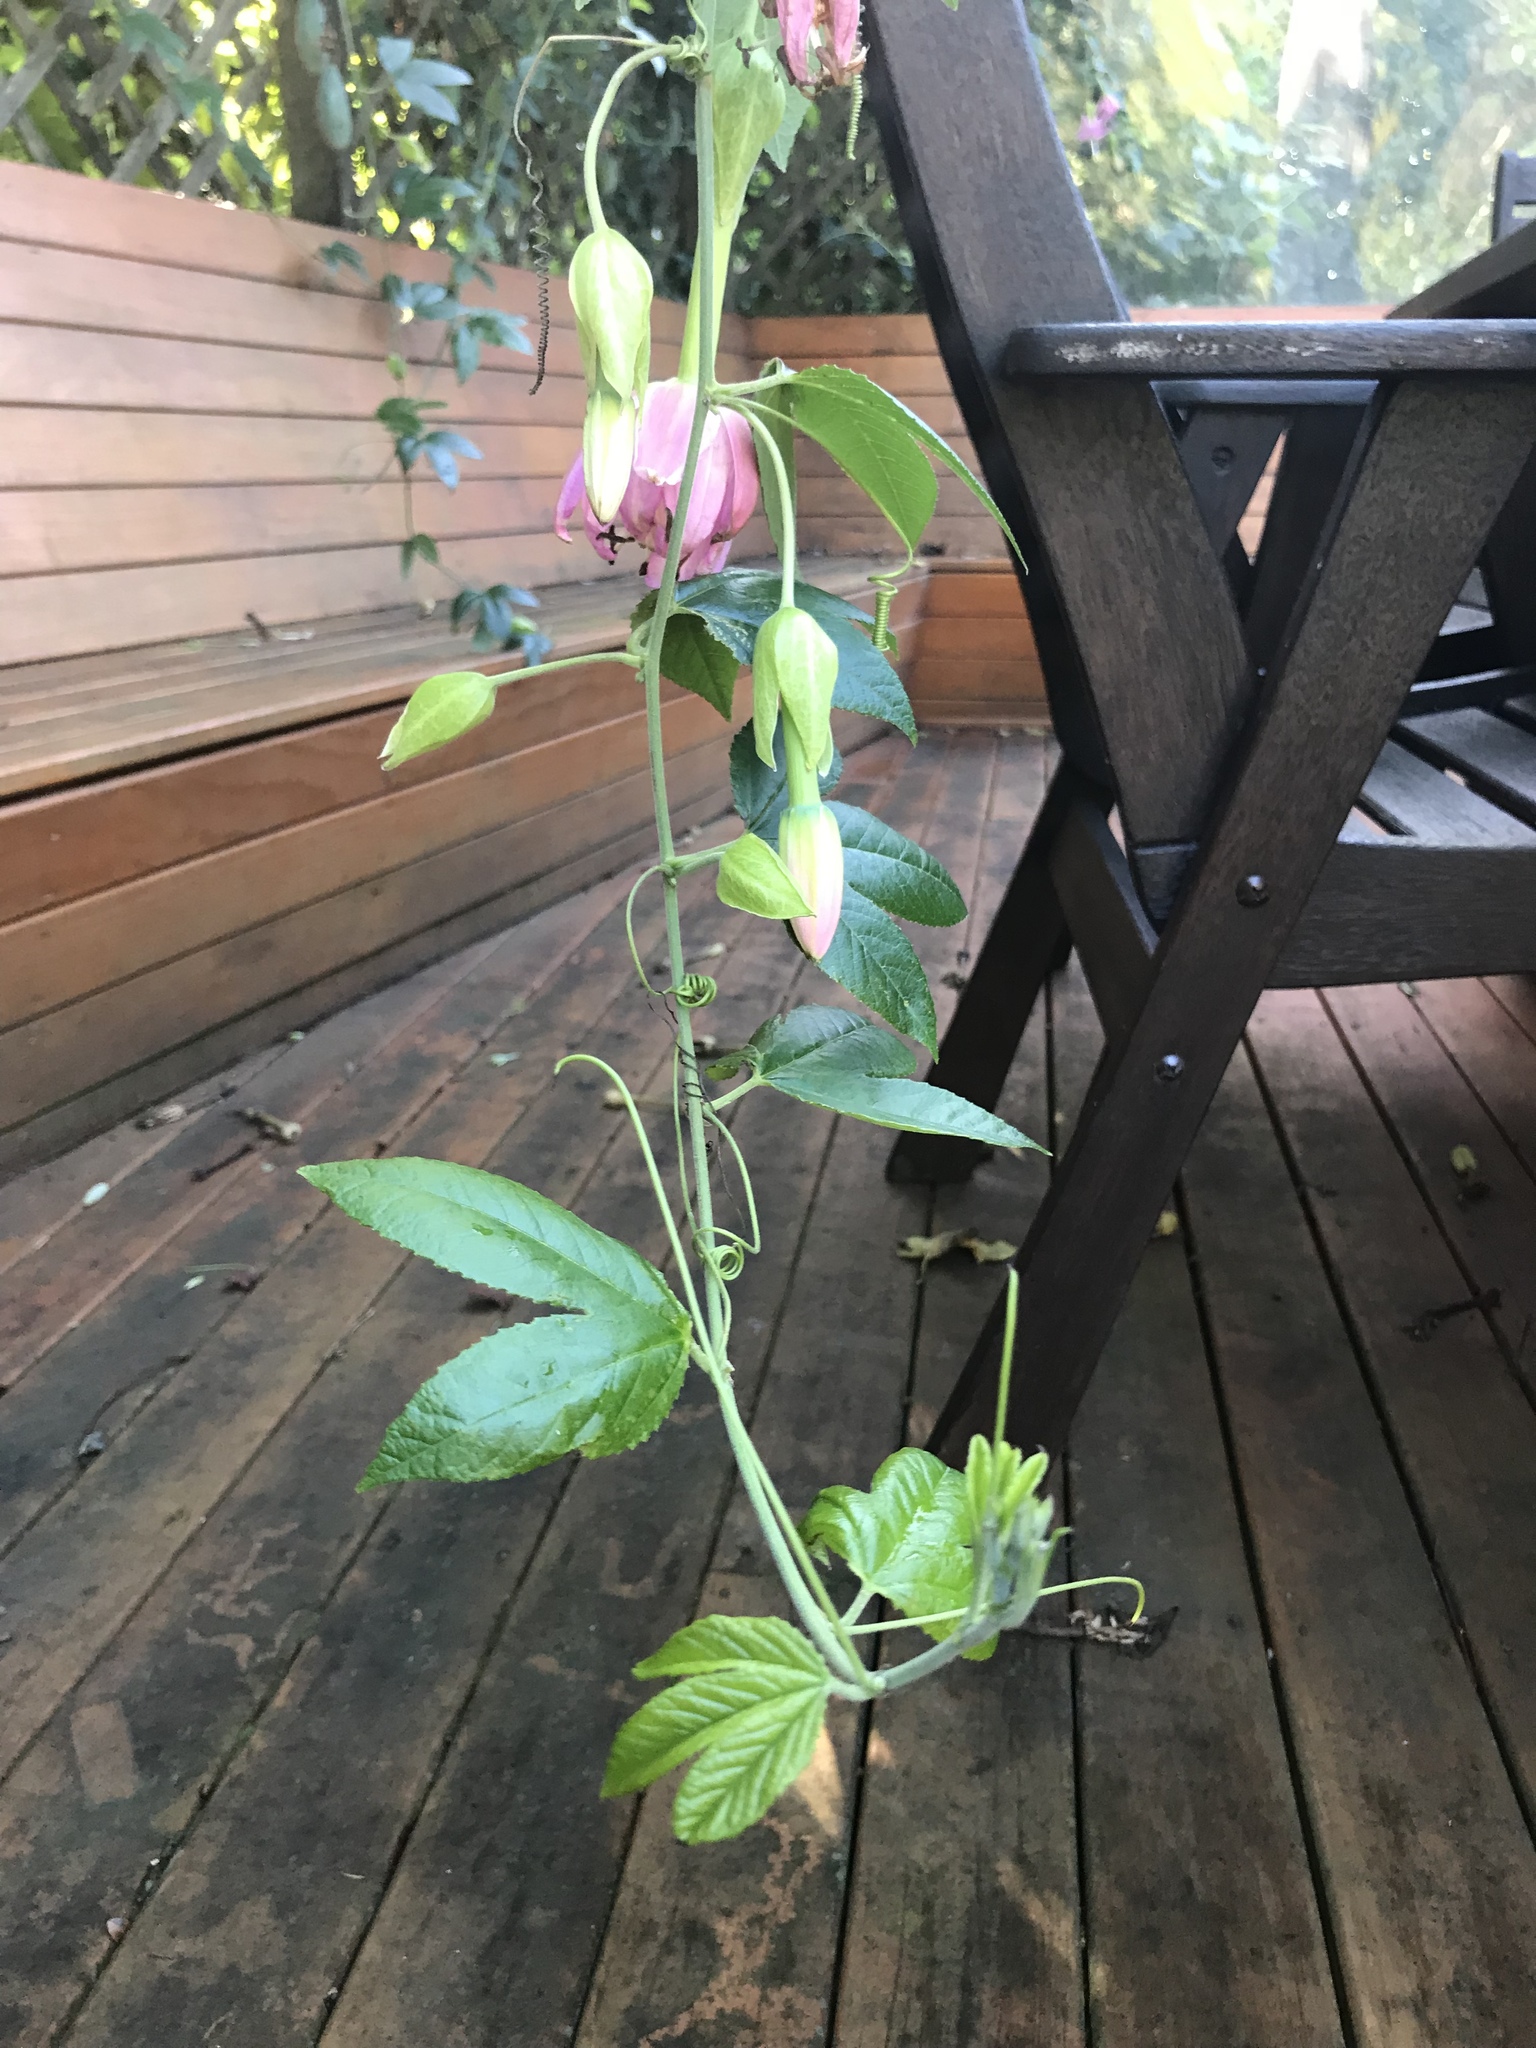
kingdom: Plantae
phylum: Tracheophyta
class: Magnoliopsida
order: Malpighiales
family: Passifloraceae
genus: Passiflora
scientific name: Passiflora tarminiana
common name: Banana poka
